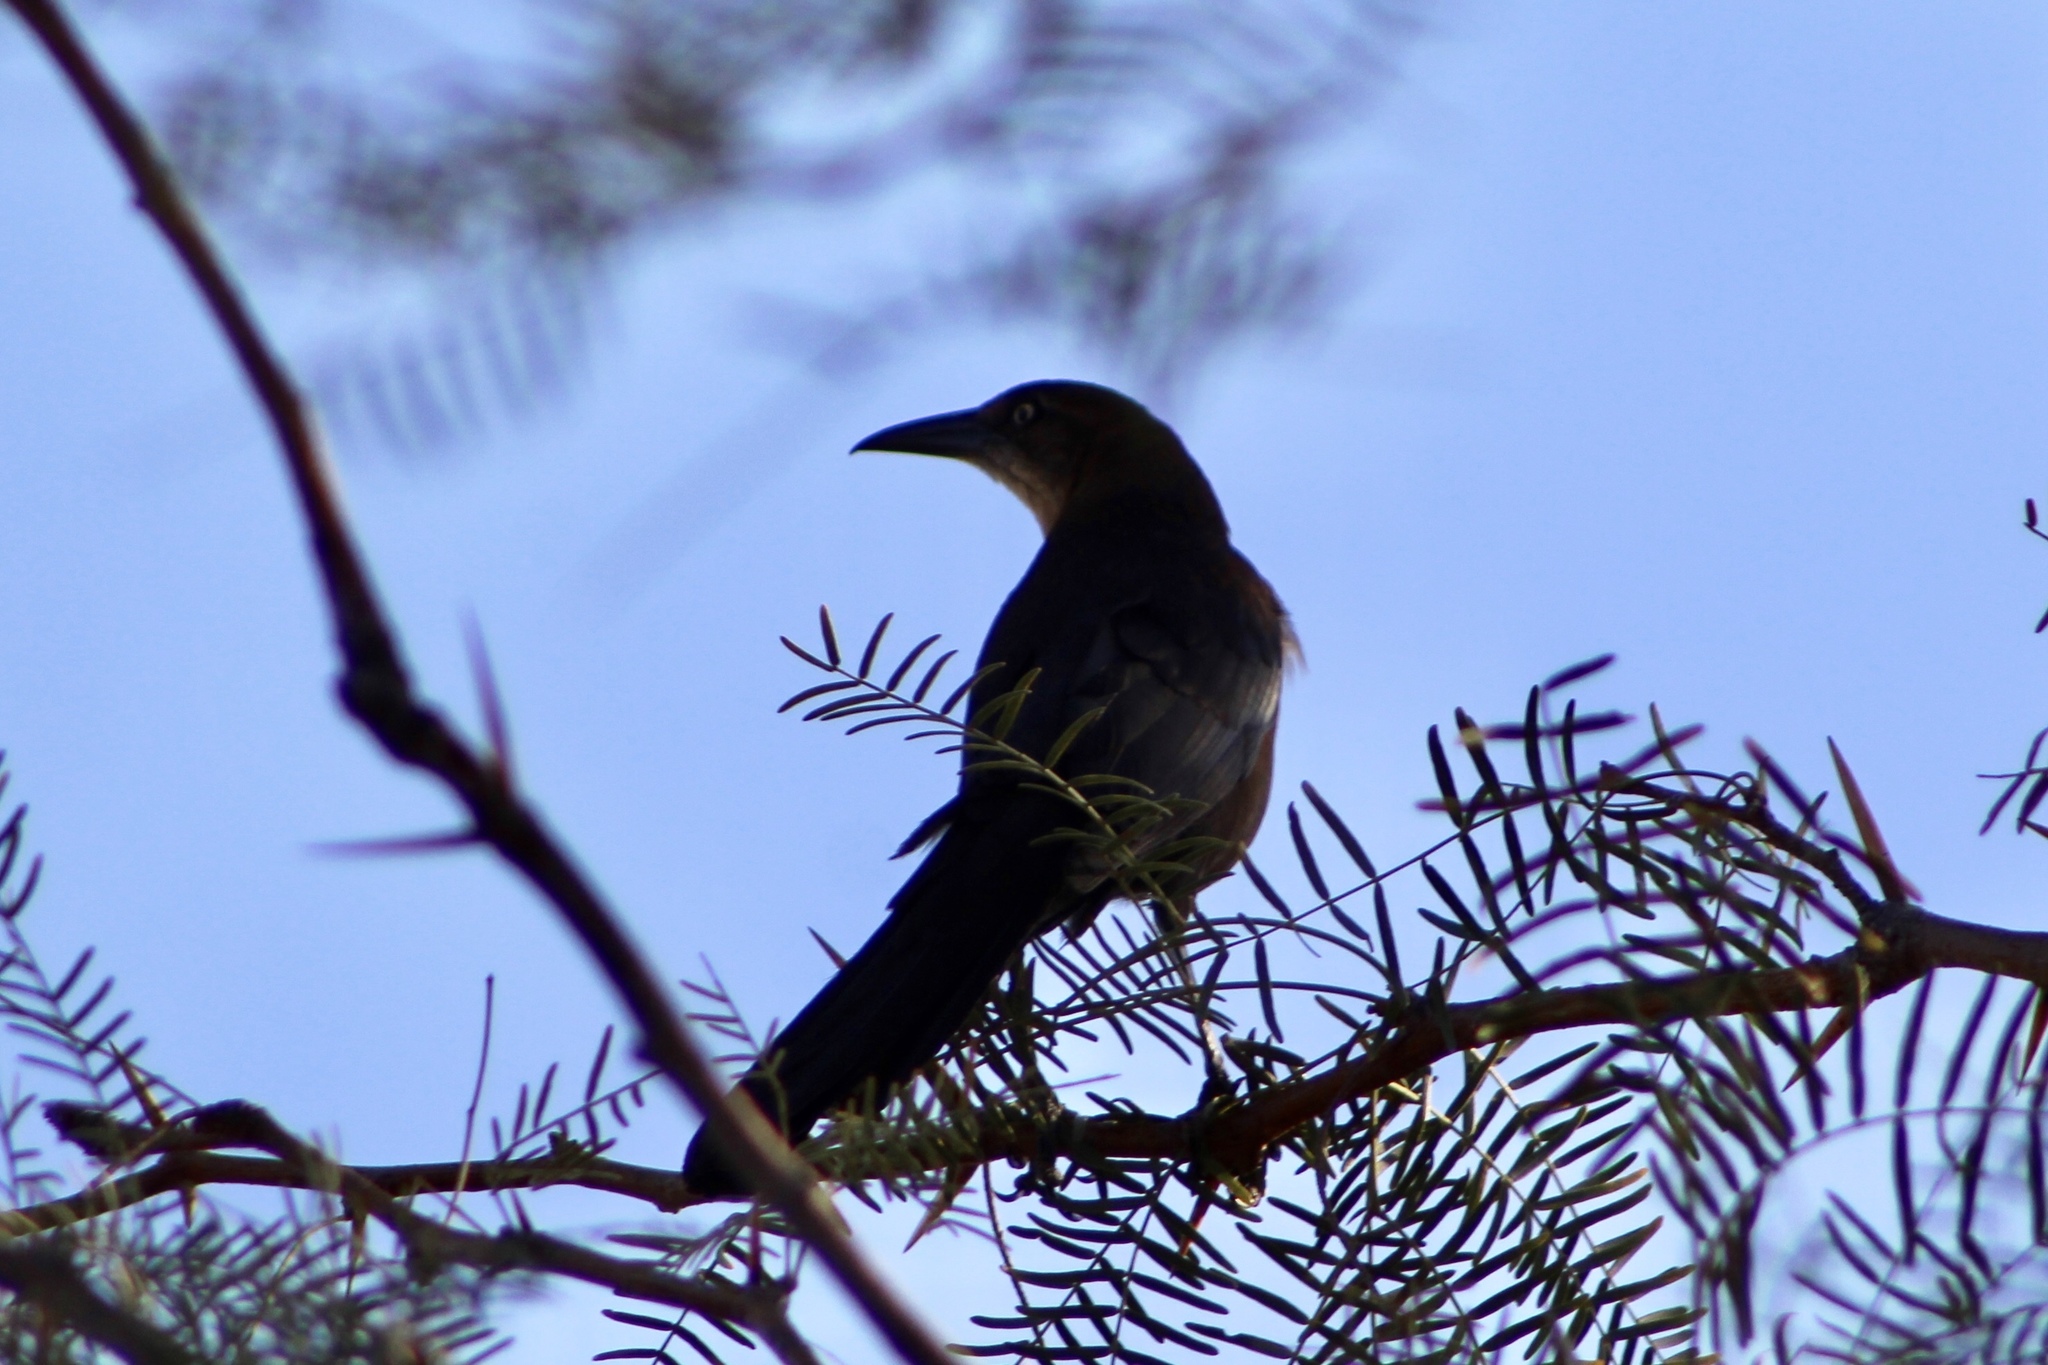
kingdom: Animalia
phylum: Chordata
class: Aves
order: Passeriformes
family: Icteridae
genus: Quiscalus
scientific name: Quiscalus mexicanus
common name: Great-tailed grackle
